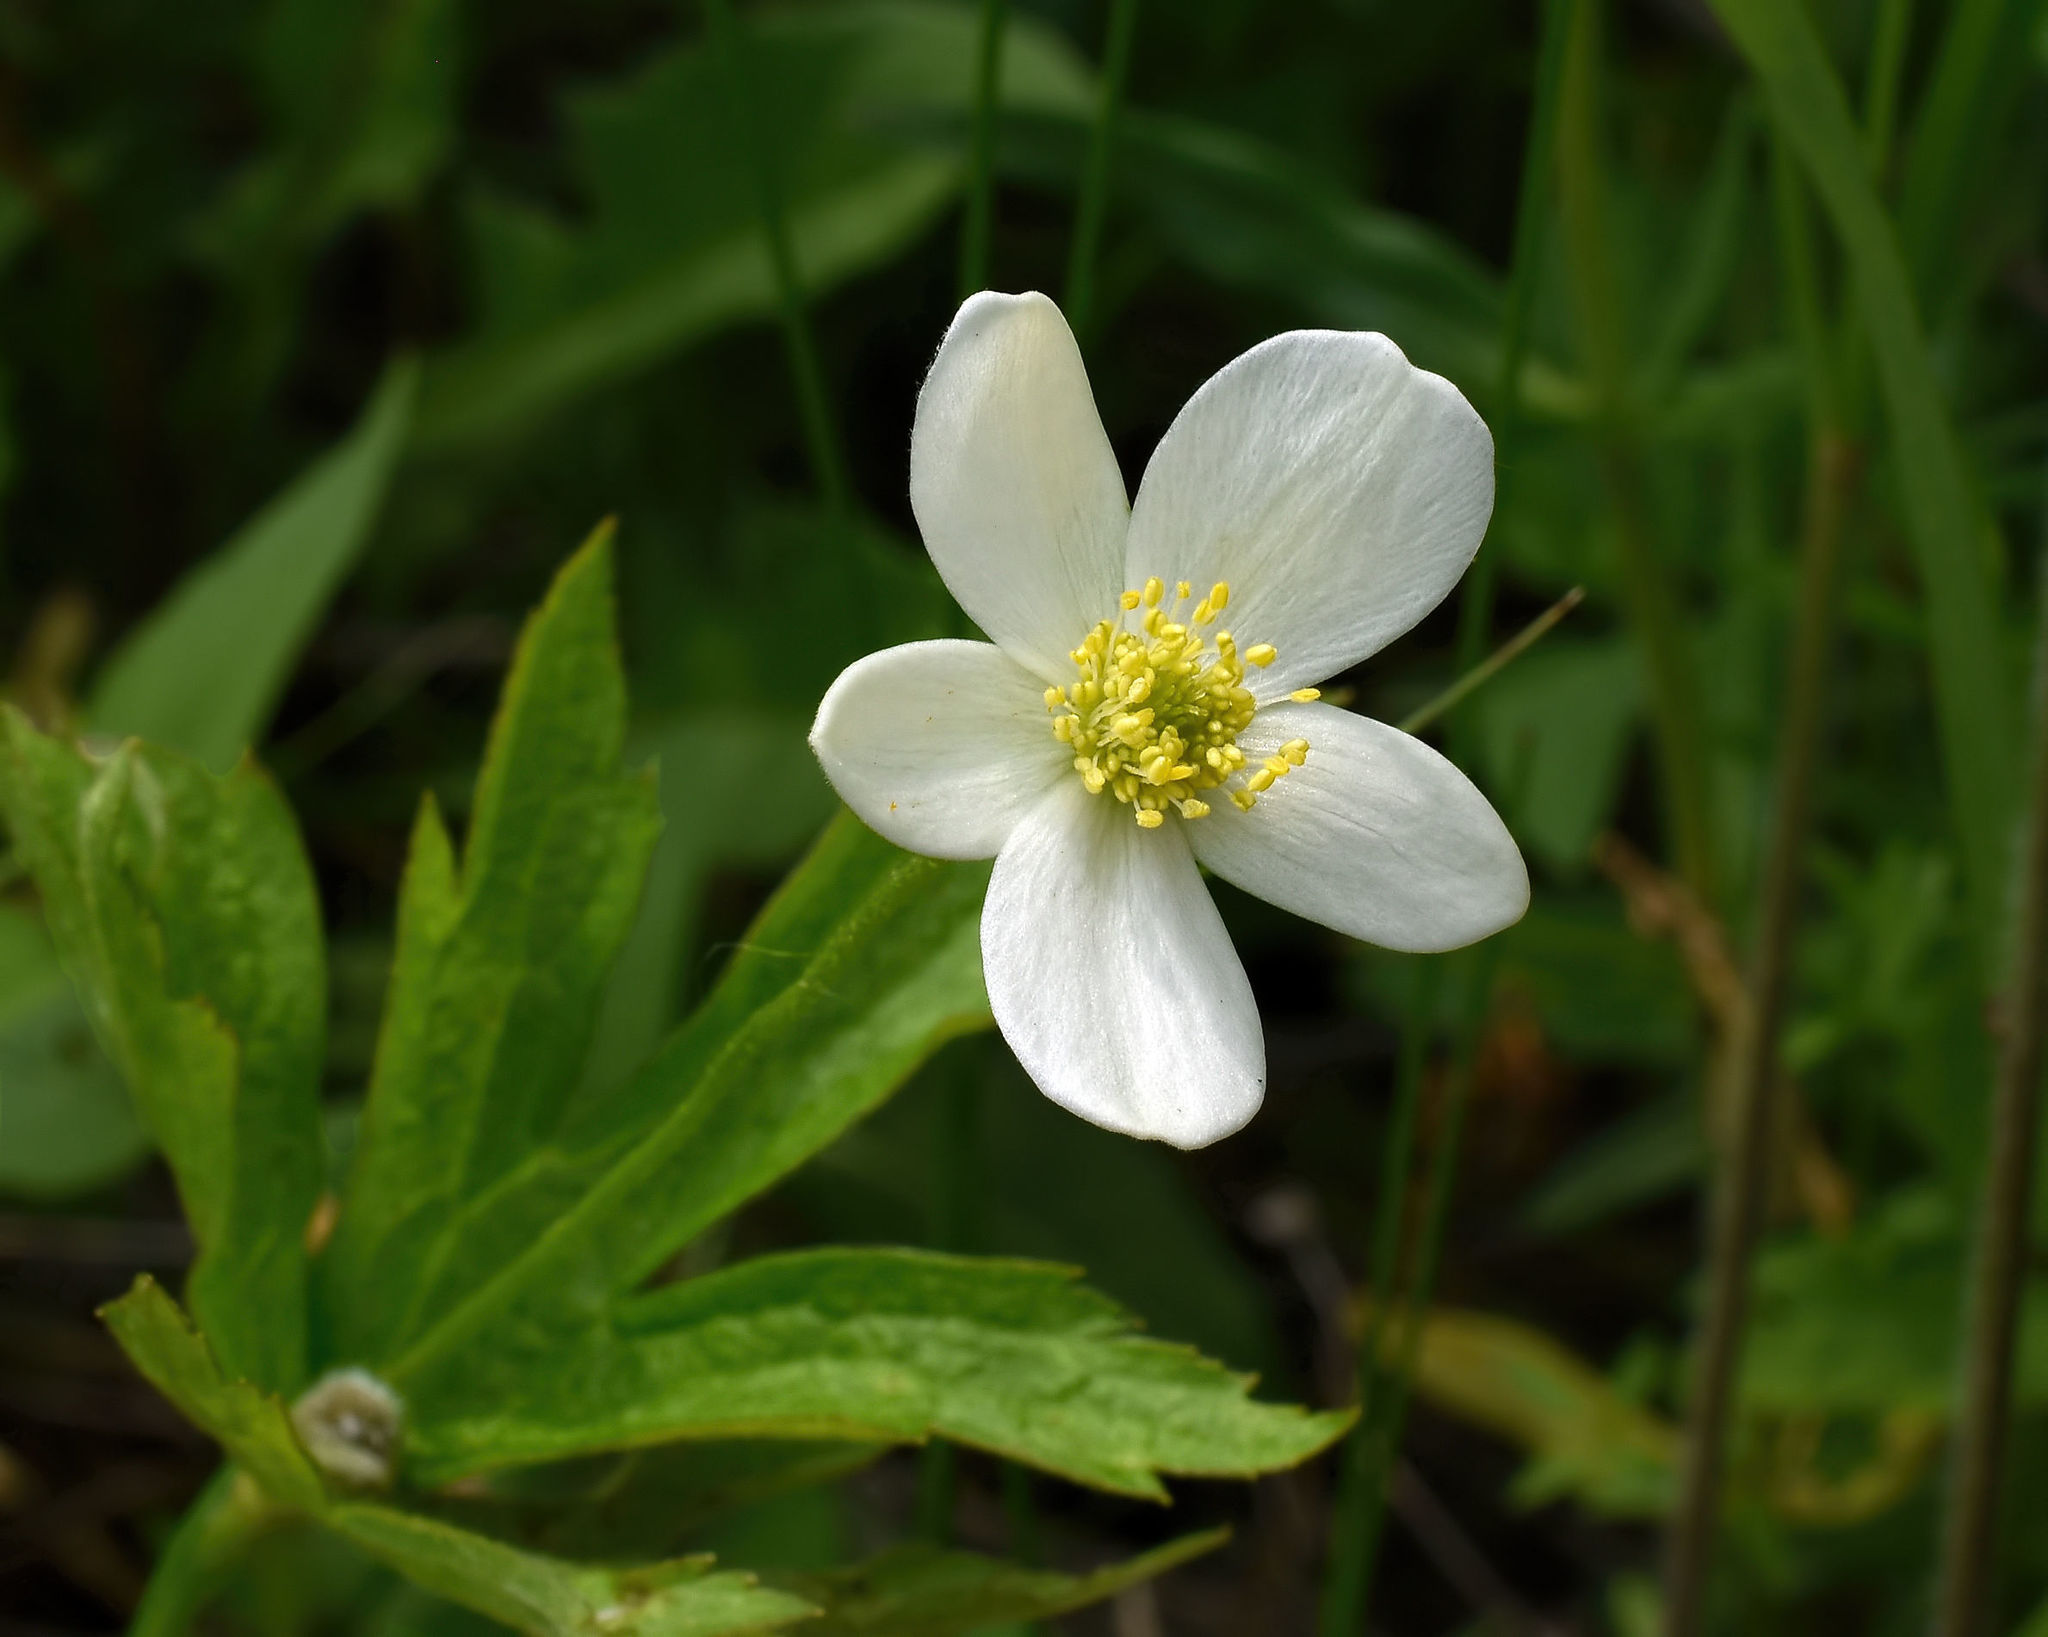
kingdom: Plantae
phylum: Tracheophyta
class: Magnoliopsida
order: Ranunculales
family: Ranunculaceae
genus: Anemonastrum
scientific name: Anemonastrum canadense
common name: Canada anemone
